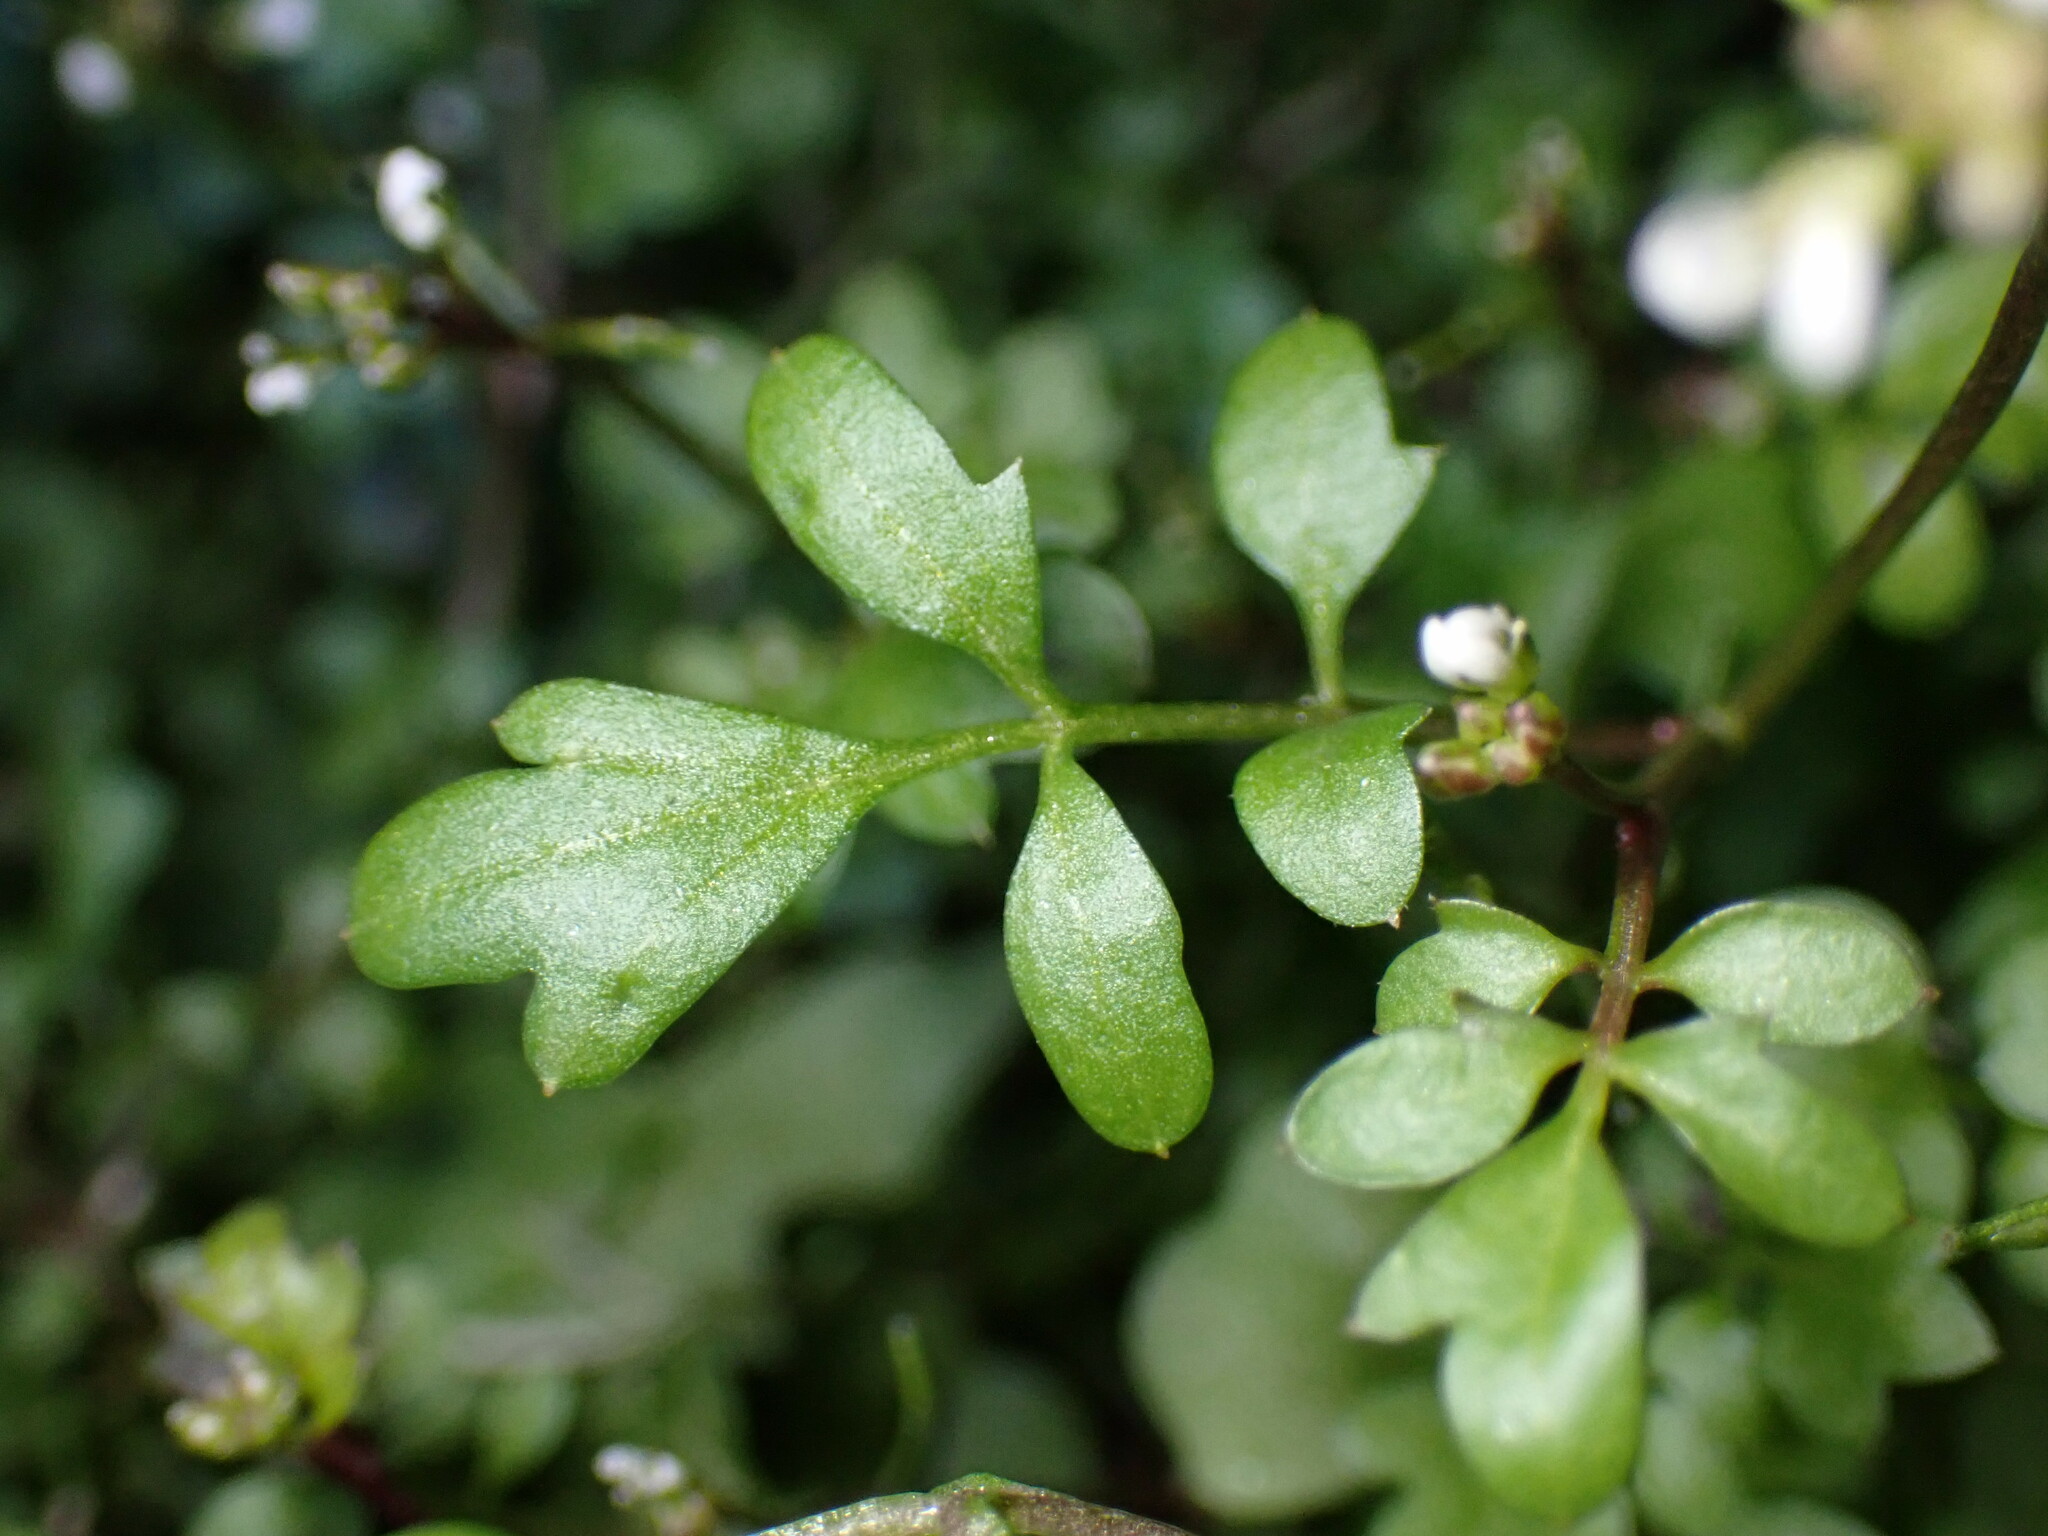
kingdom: Plantae
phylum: Tracheophyta
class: Magnoliopsida
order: Brassicales
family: Brassicaceae
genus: Cardamine
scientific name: Cardamine occulta
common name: Asian wavy bittercress
